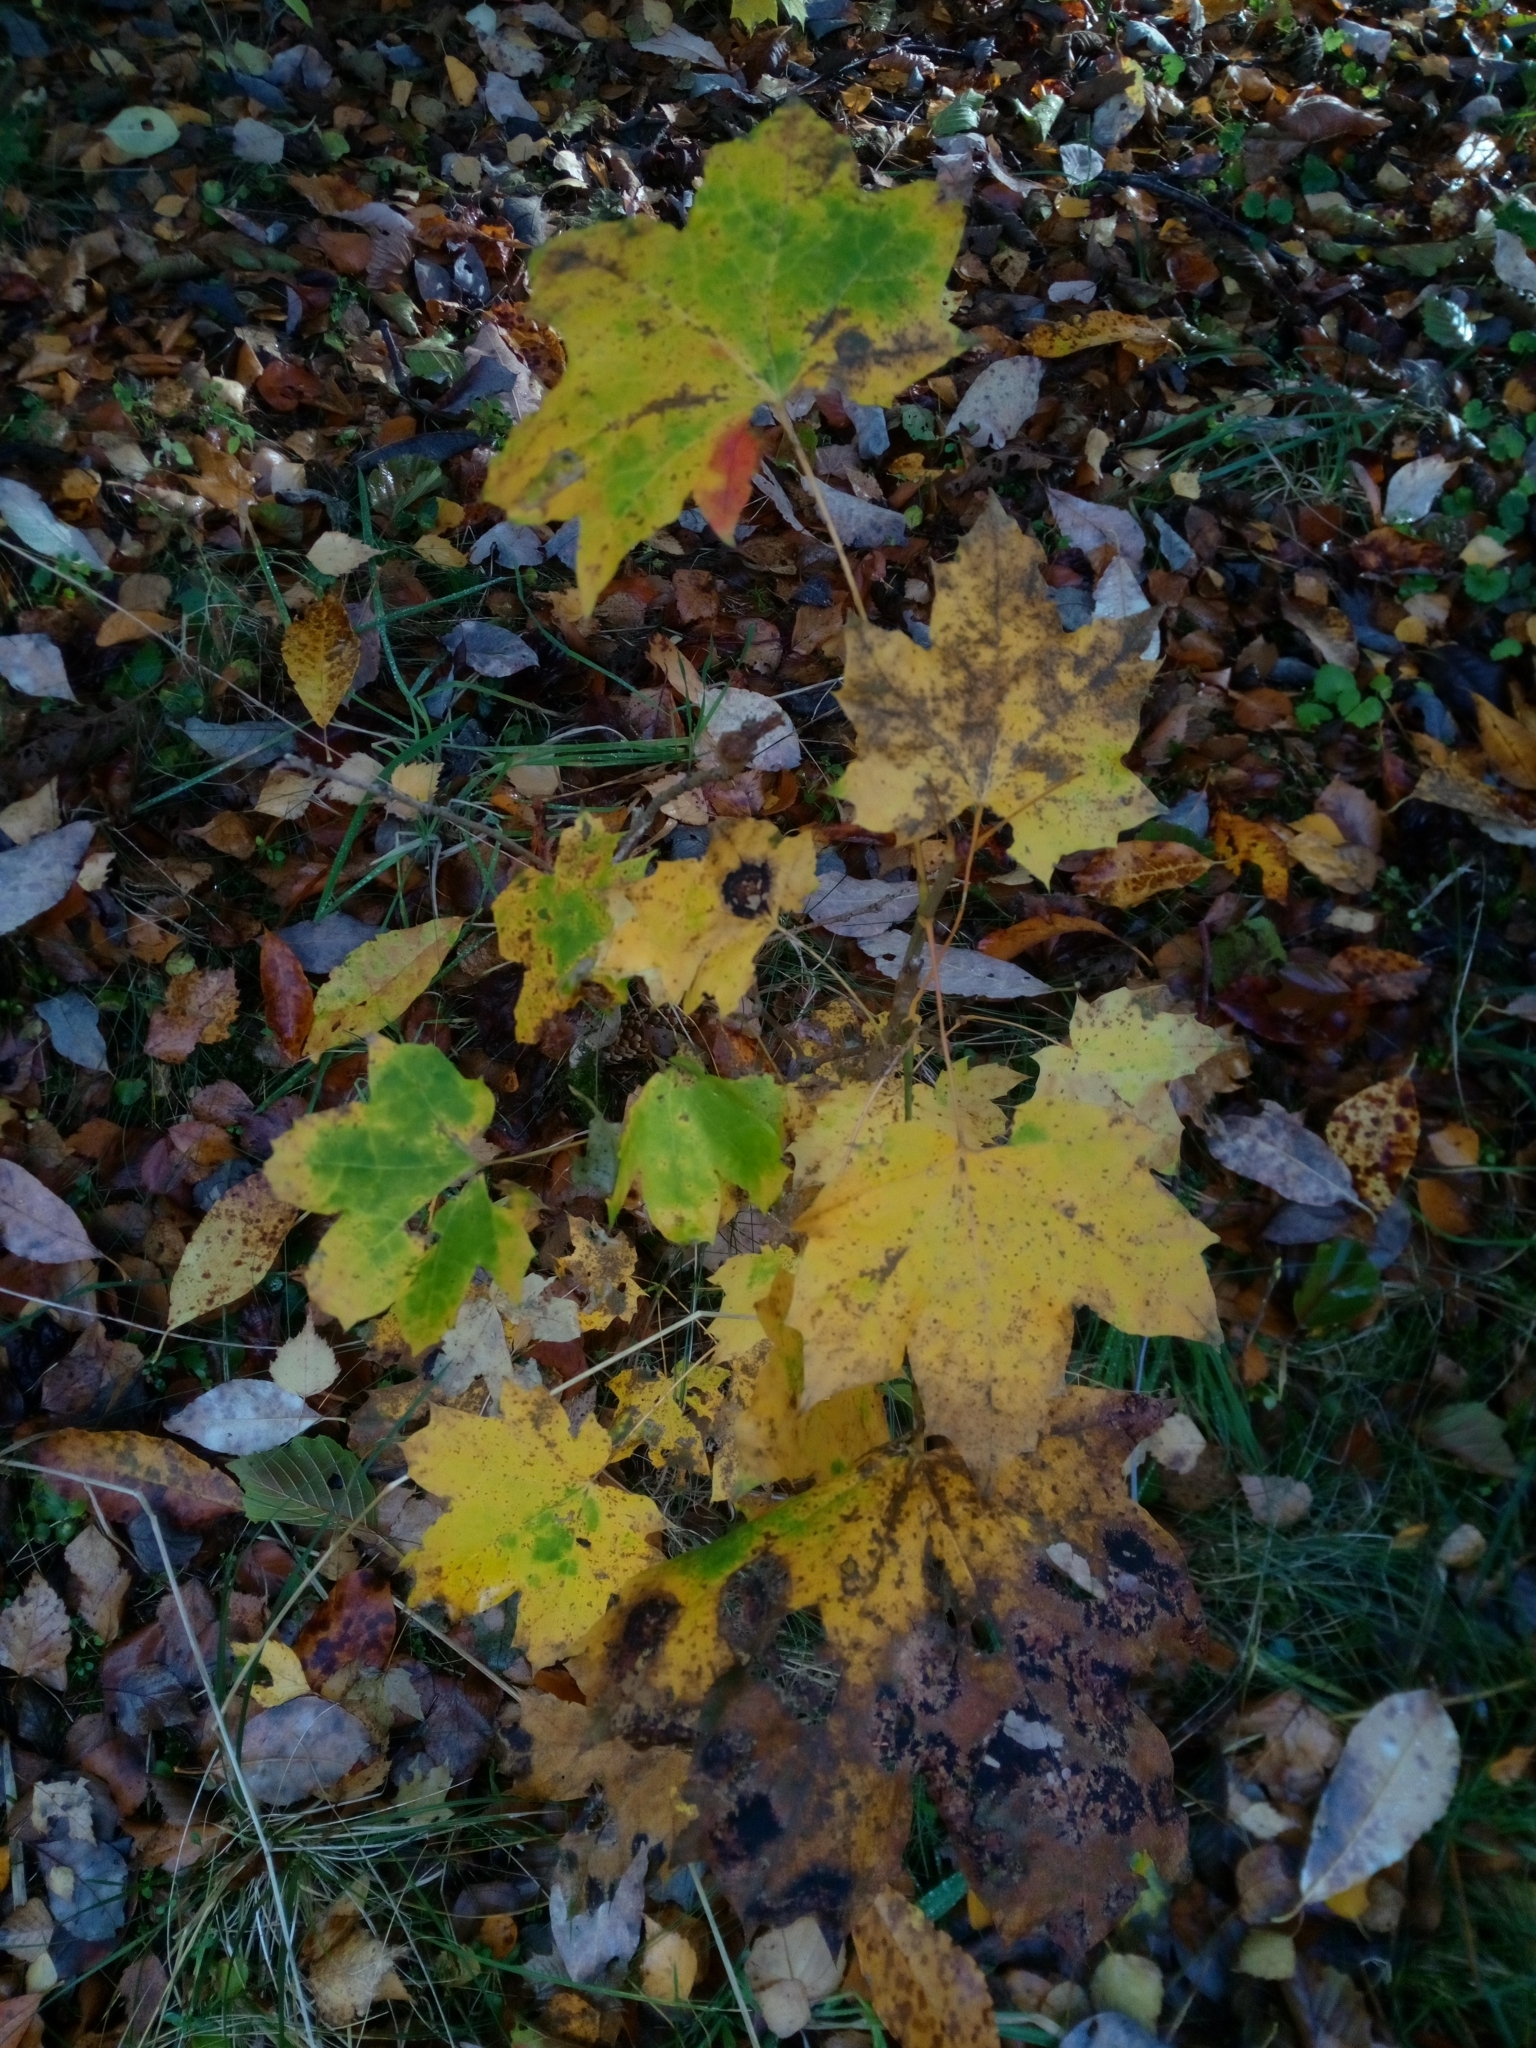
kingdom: Plantae
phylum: Tracheophyta
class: Magnoliopsida
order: Sapindales
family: Sapindaceae
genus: Acer
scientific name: Acer platanoides
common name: Norway maple
